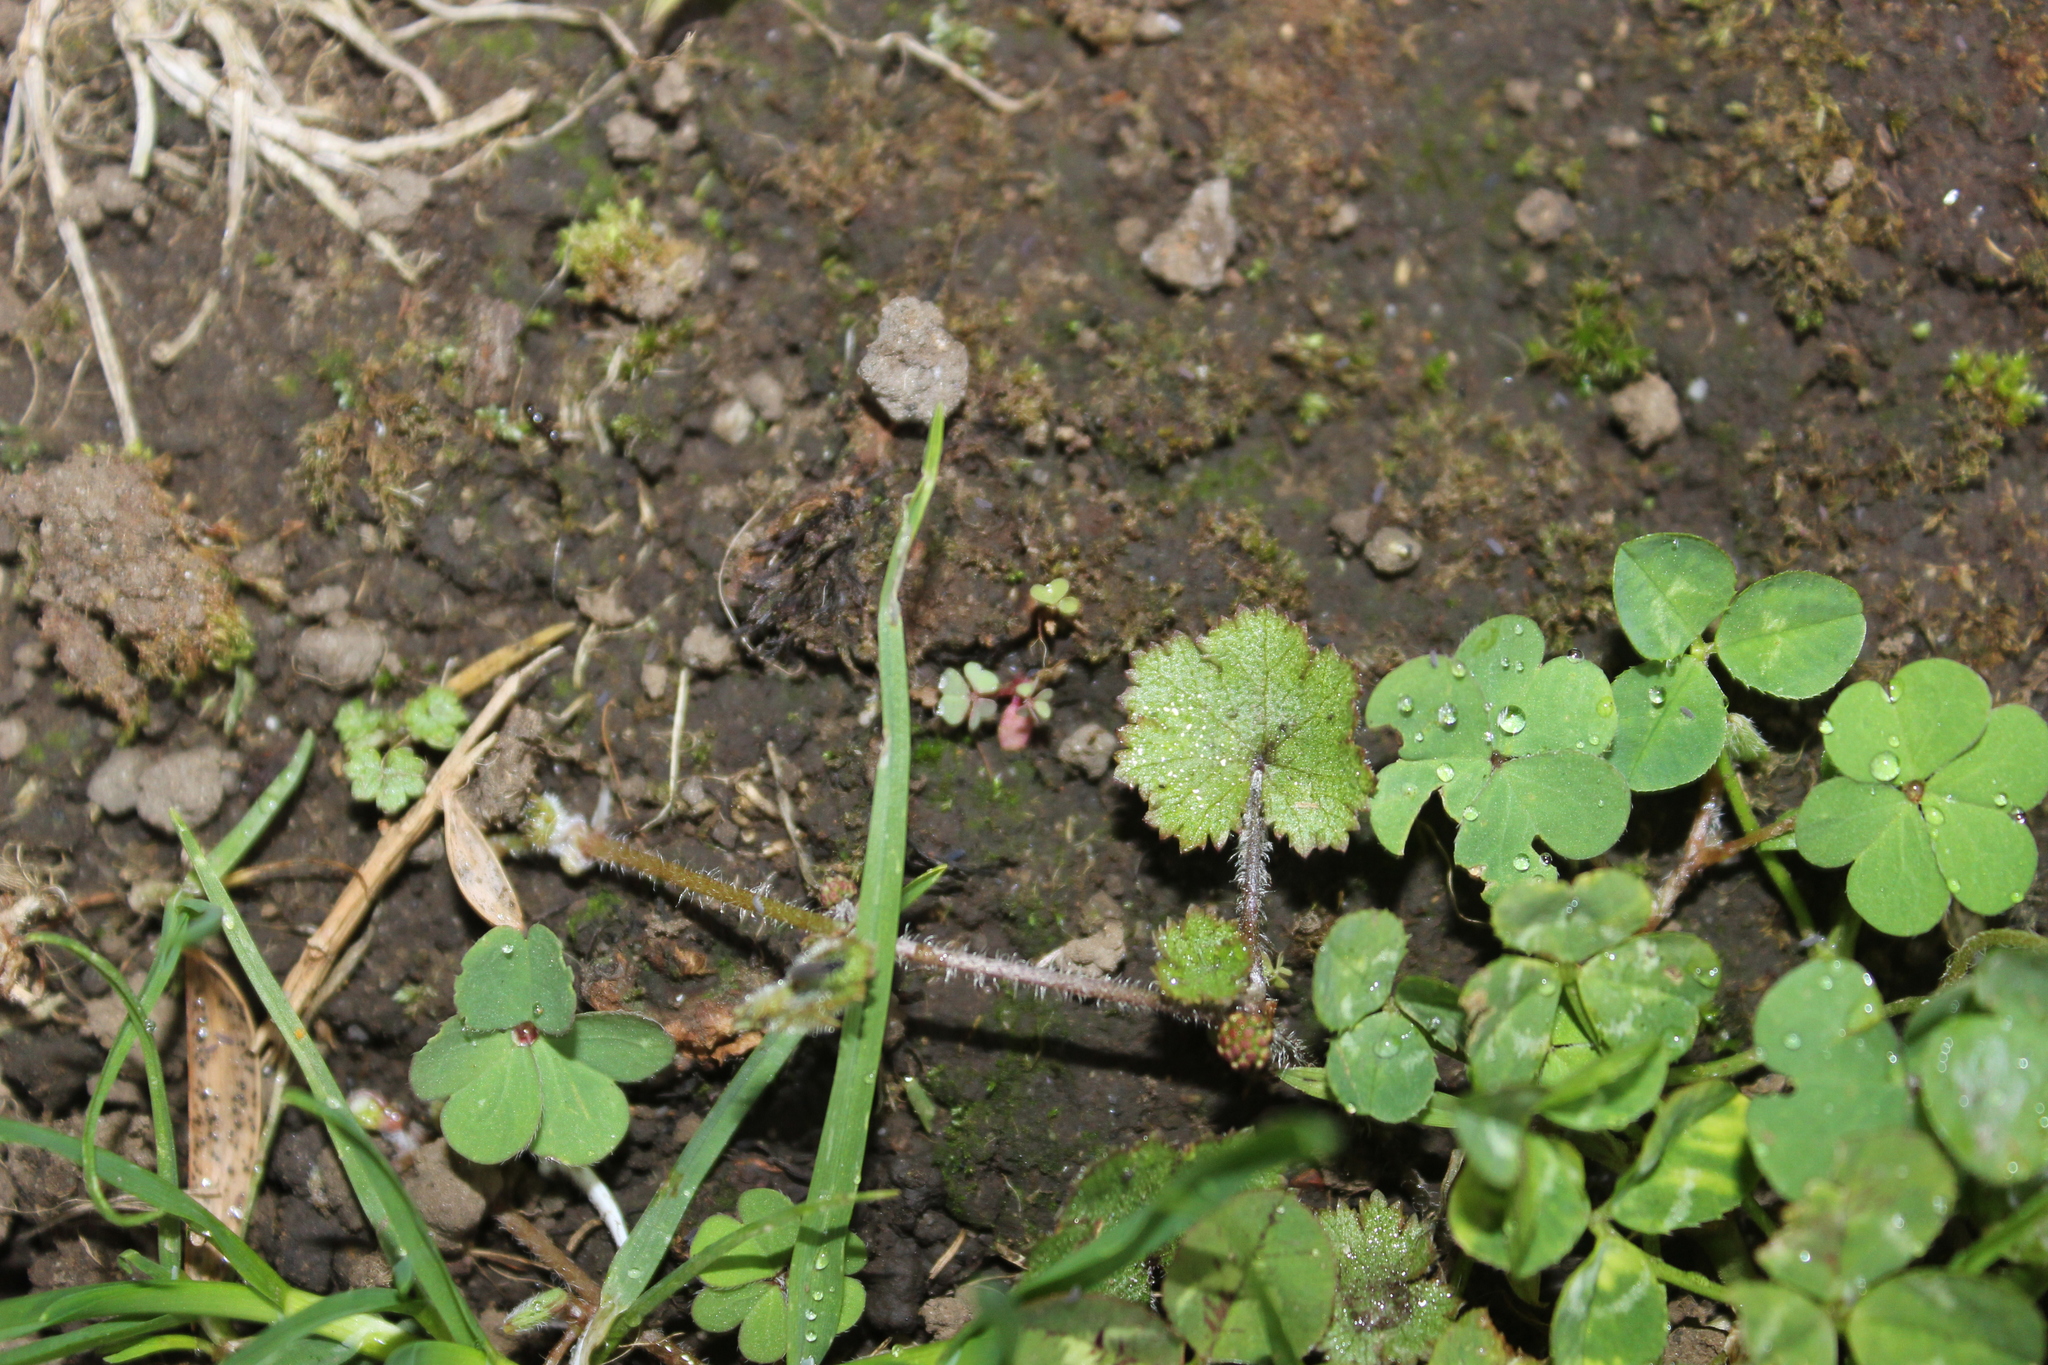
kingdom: Plantae
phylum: Tracheophyta
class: Magnoliopsida
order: Apiales
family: Araliaceae
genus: Hydrocotyle
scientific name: Hydrocotyle moschata
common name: Hairy pennywort
